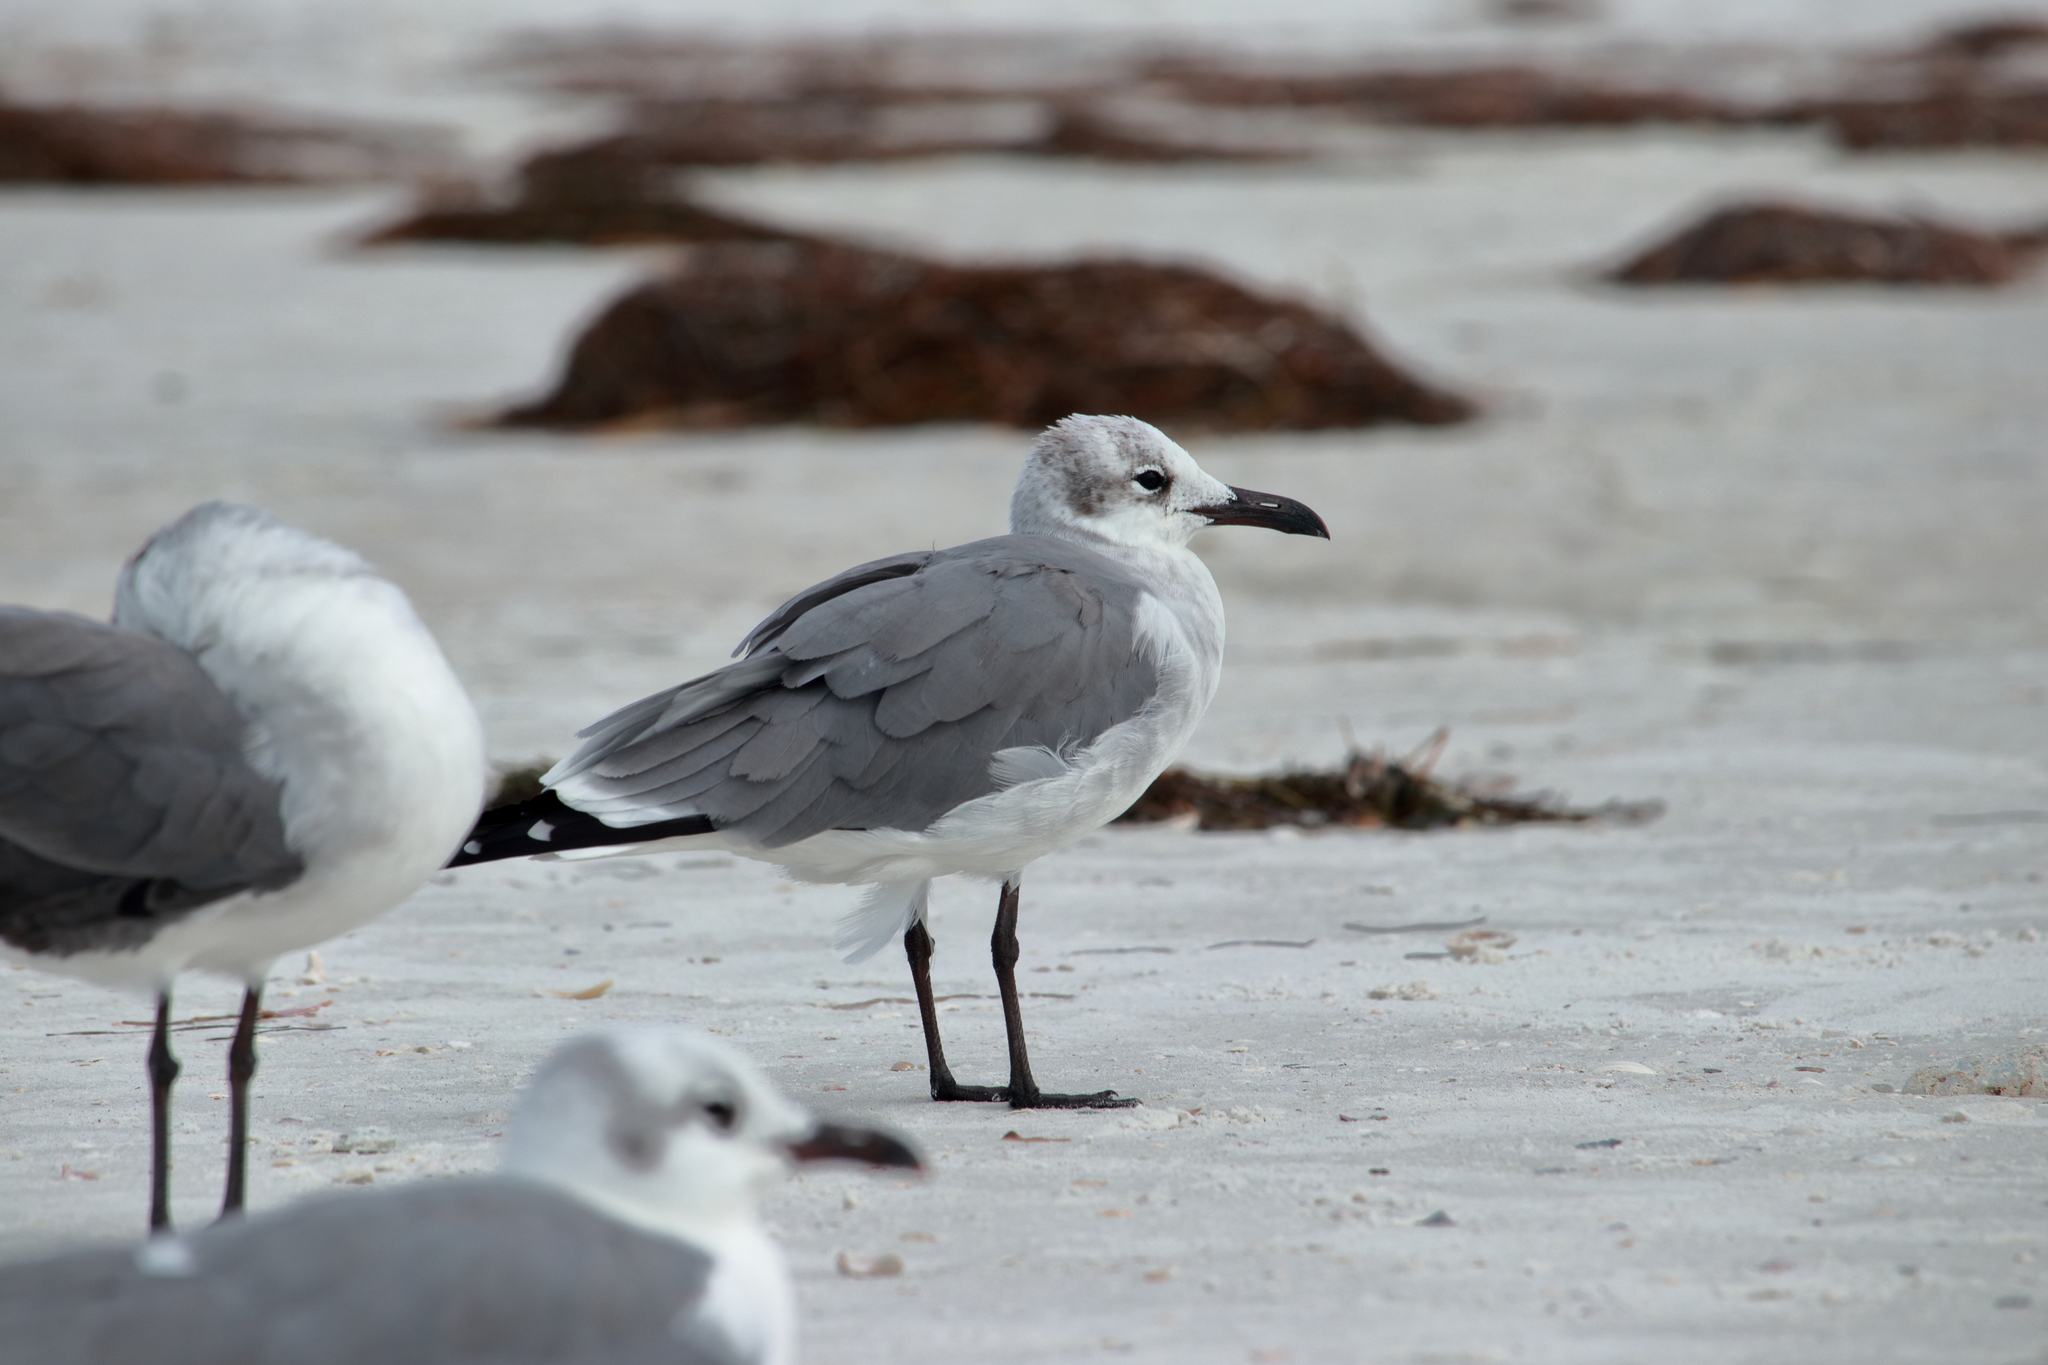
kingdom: Animalia
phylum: Chordata
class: Aves
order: Charadriiformes
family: Laridae
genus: Leucophaeus
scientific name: Leucophaeus atricilla
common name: Laughing gull
